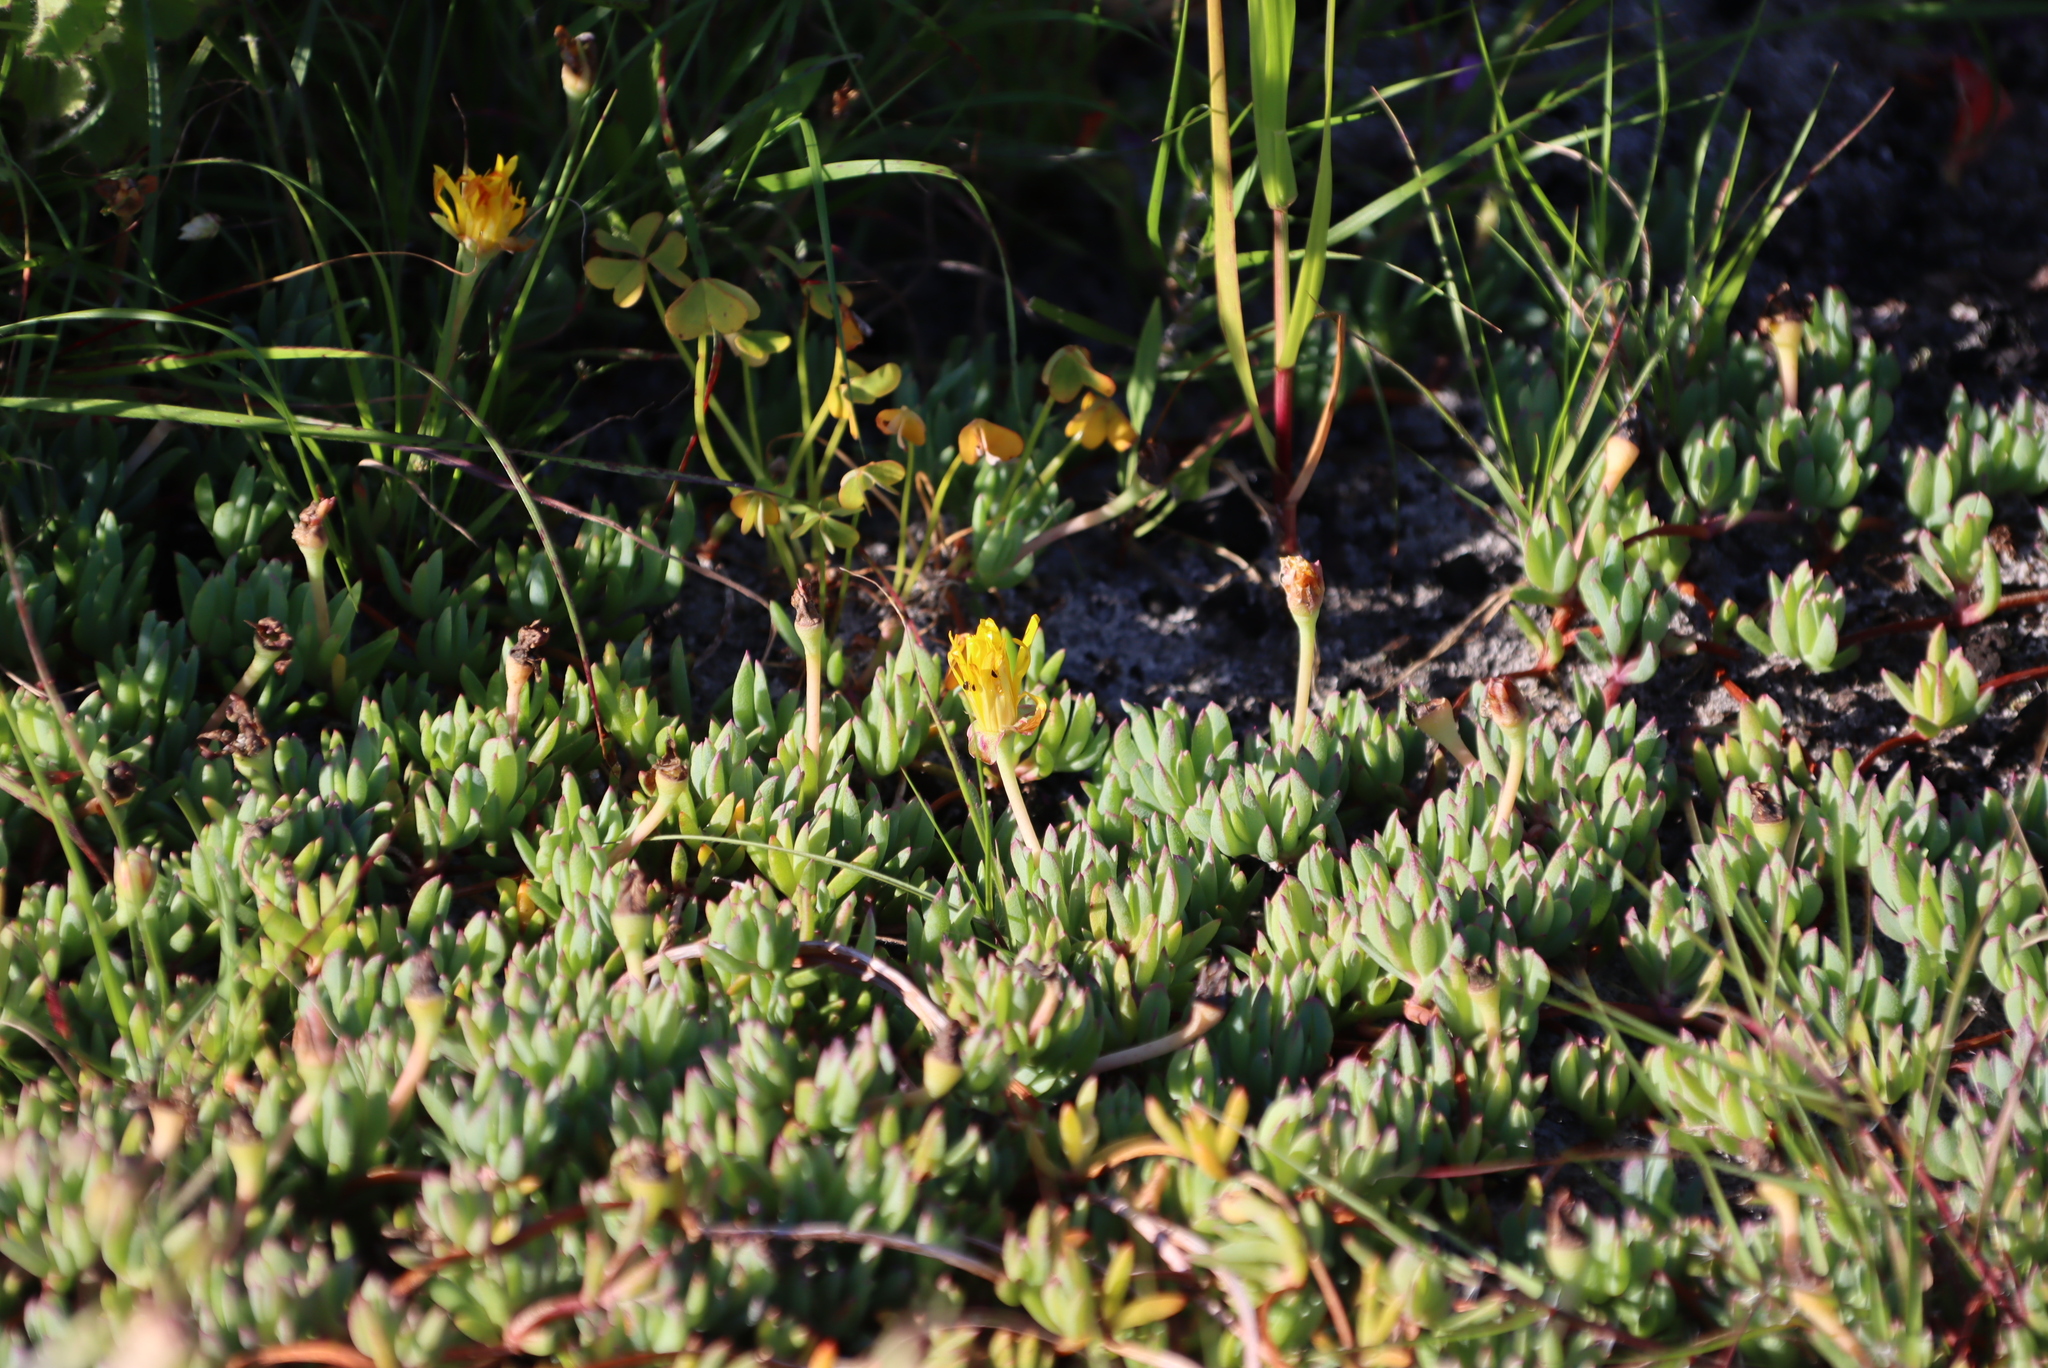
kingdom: Plantae
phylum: Tracheophyta
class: Magnoliopsida
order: Caryophyllales
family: Aizoaceae
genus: Lampranthus
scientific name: Lampranthus reptans
